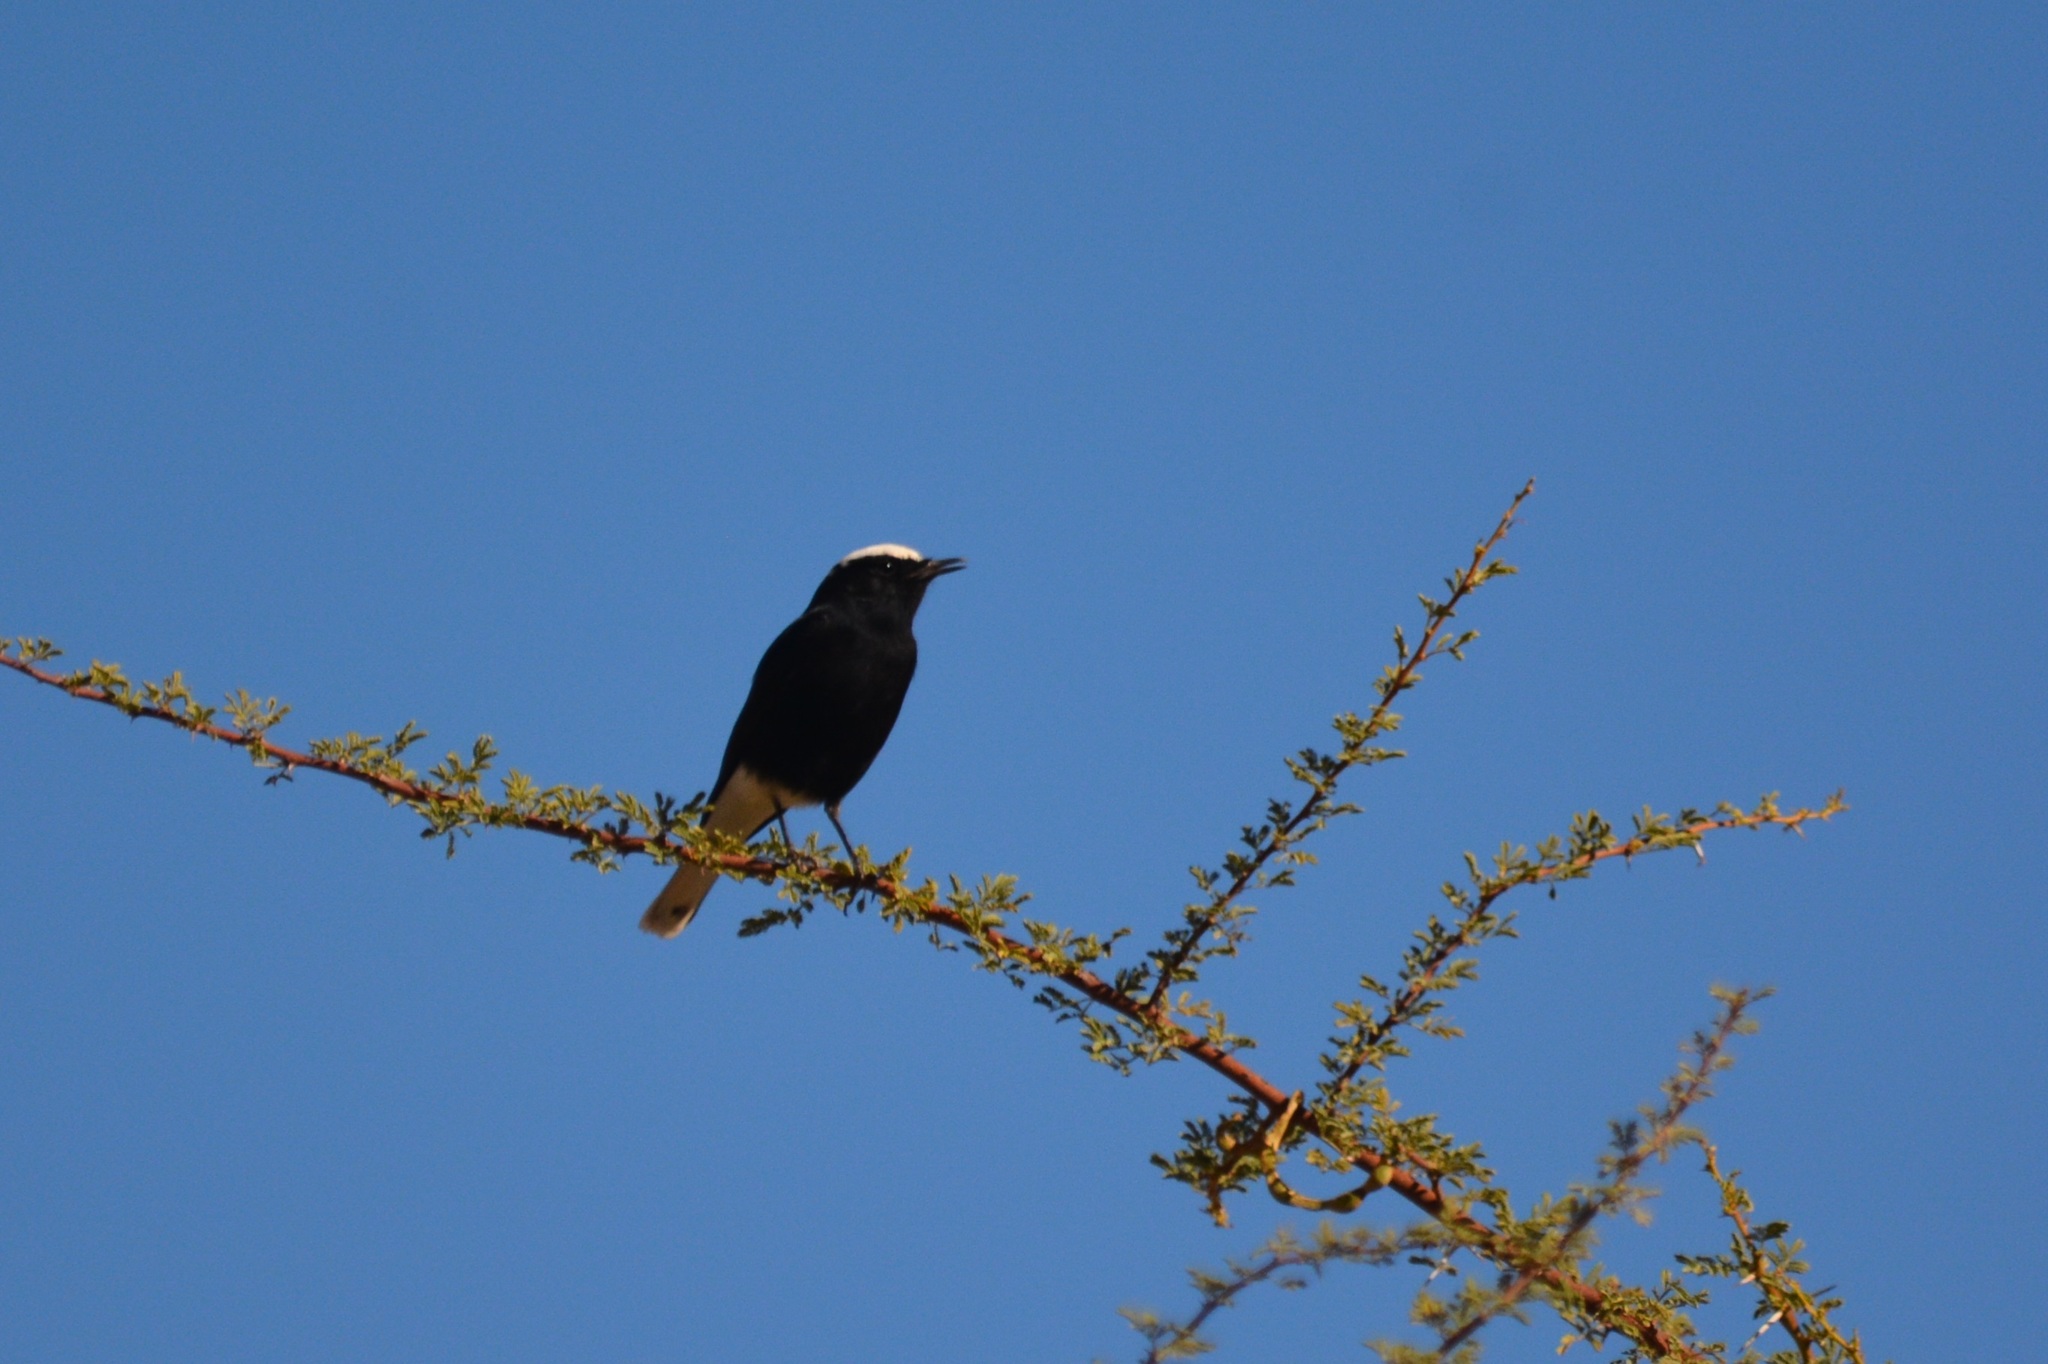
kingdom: Animalia
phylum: Chordata
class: Aves
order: Passeriformes
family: Muscicapidae
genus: Oenanthe
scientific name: Oenanthe leucopyga
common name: White-crowned wheatear
